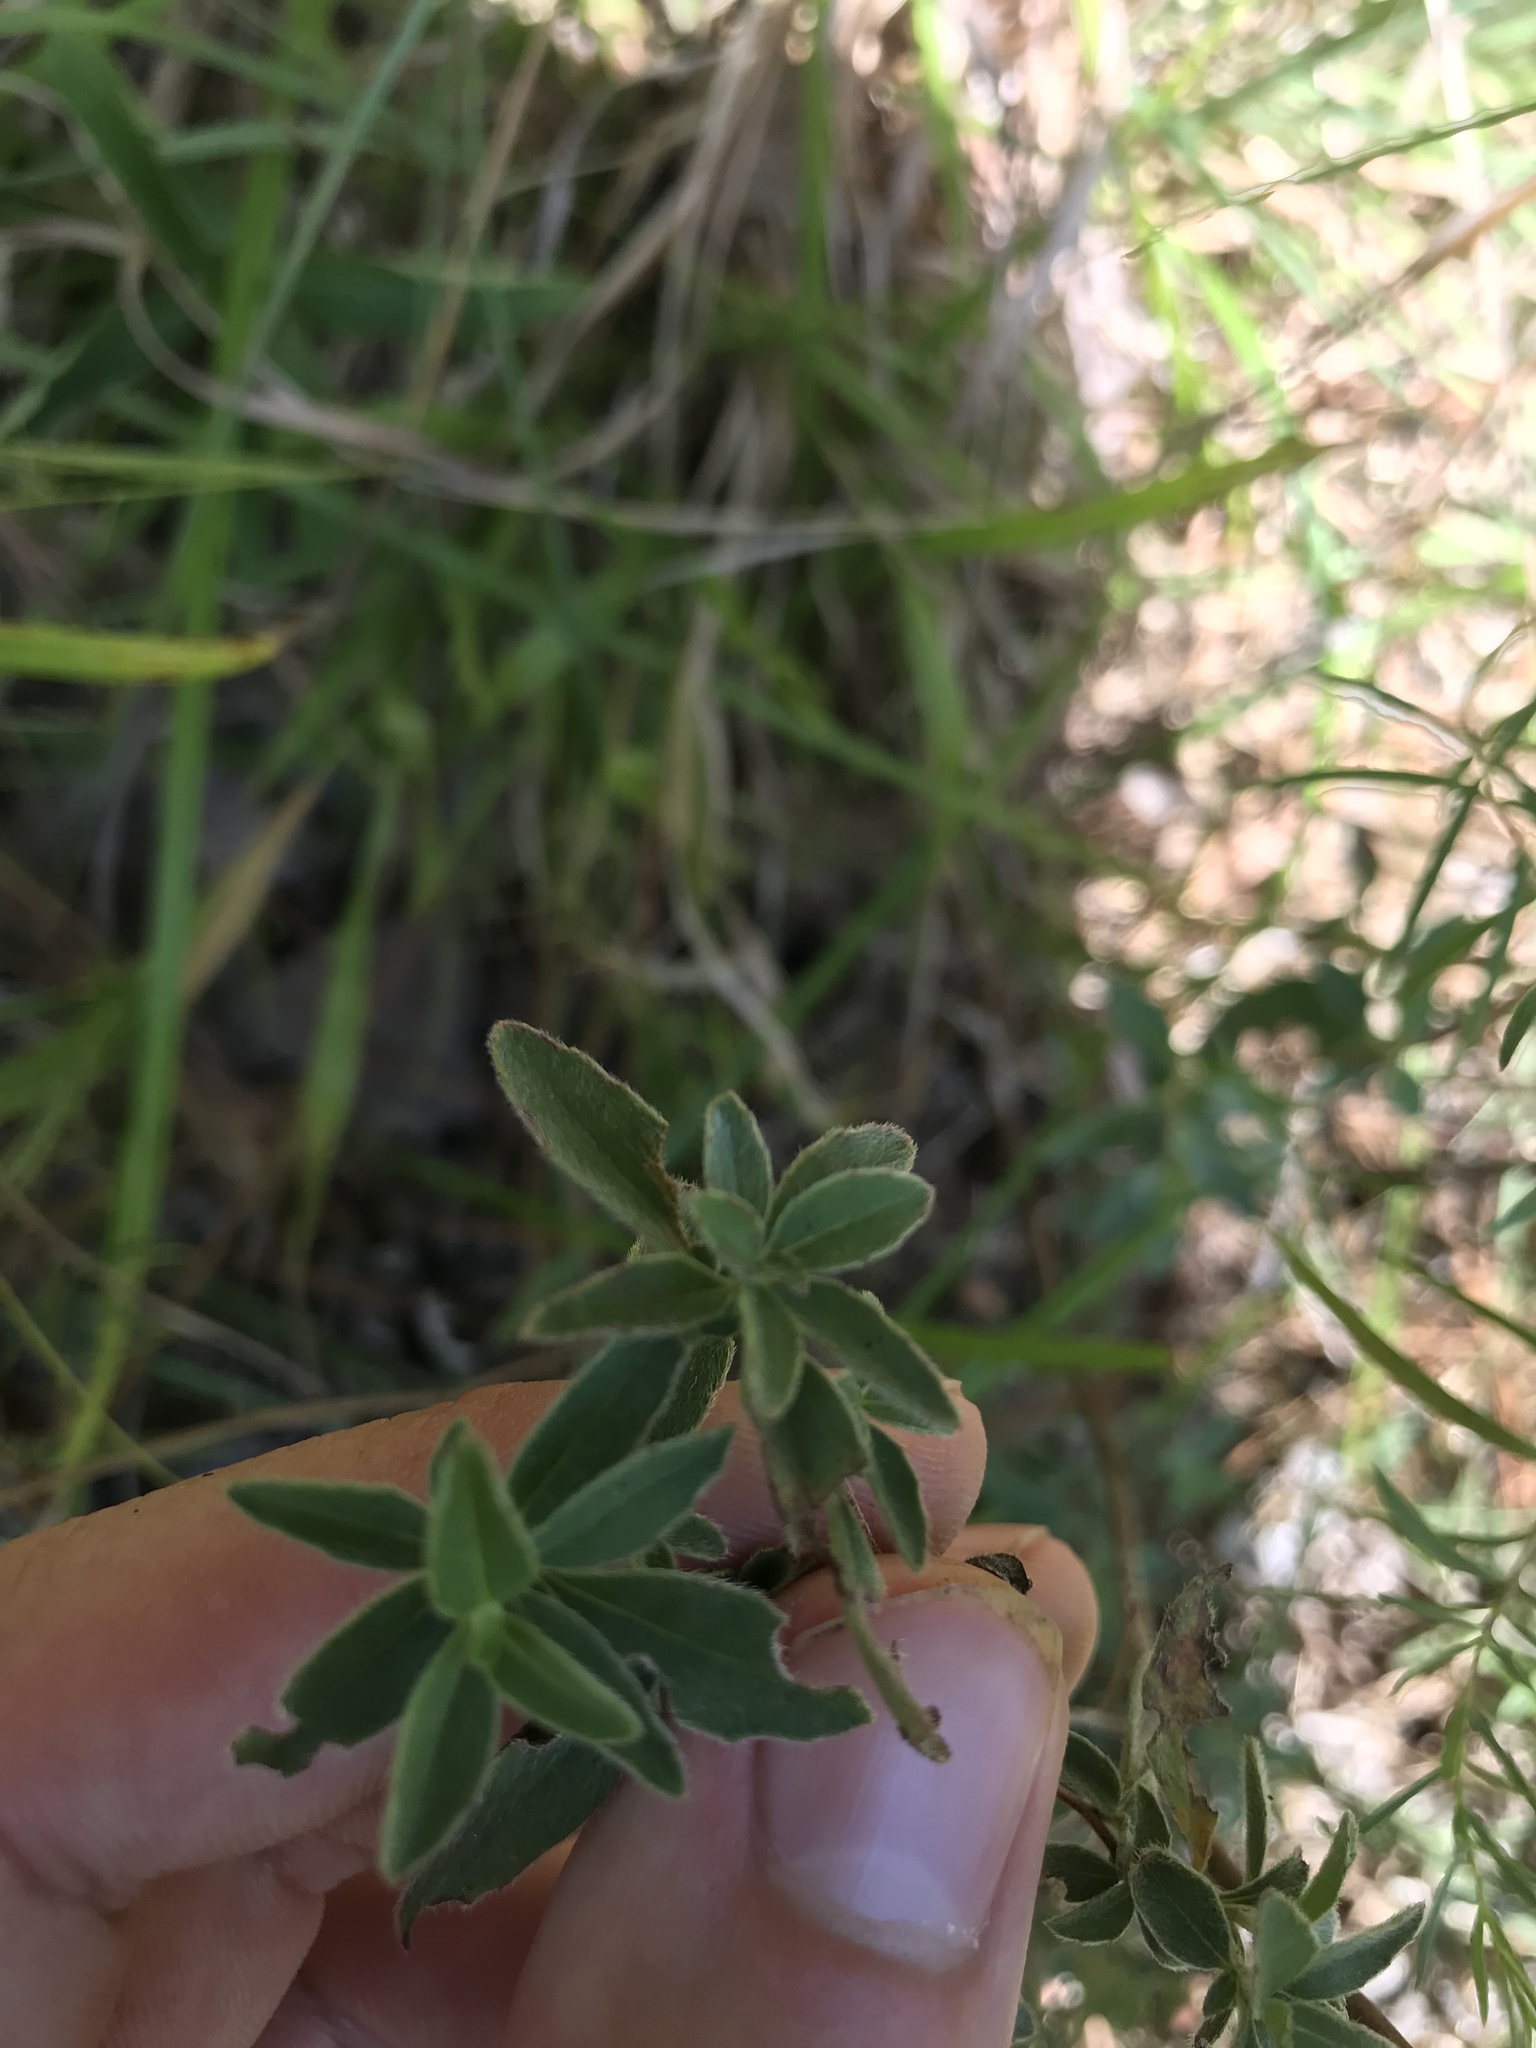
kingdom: Plantae
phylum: Tracheophyta
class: Magnoliopsida
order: Myrtales
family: Onagraceae
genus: Oenothera
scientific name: Oenothera fruticosa
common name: Southern sundrops
